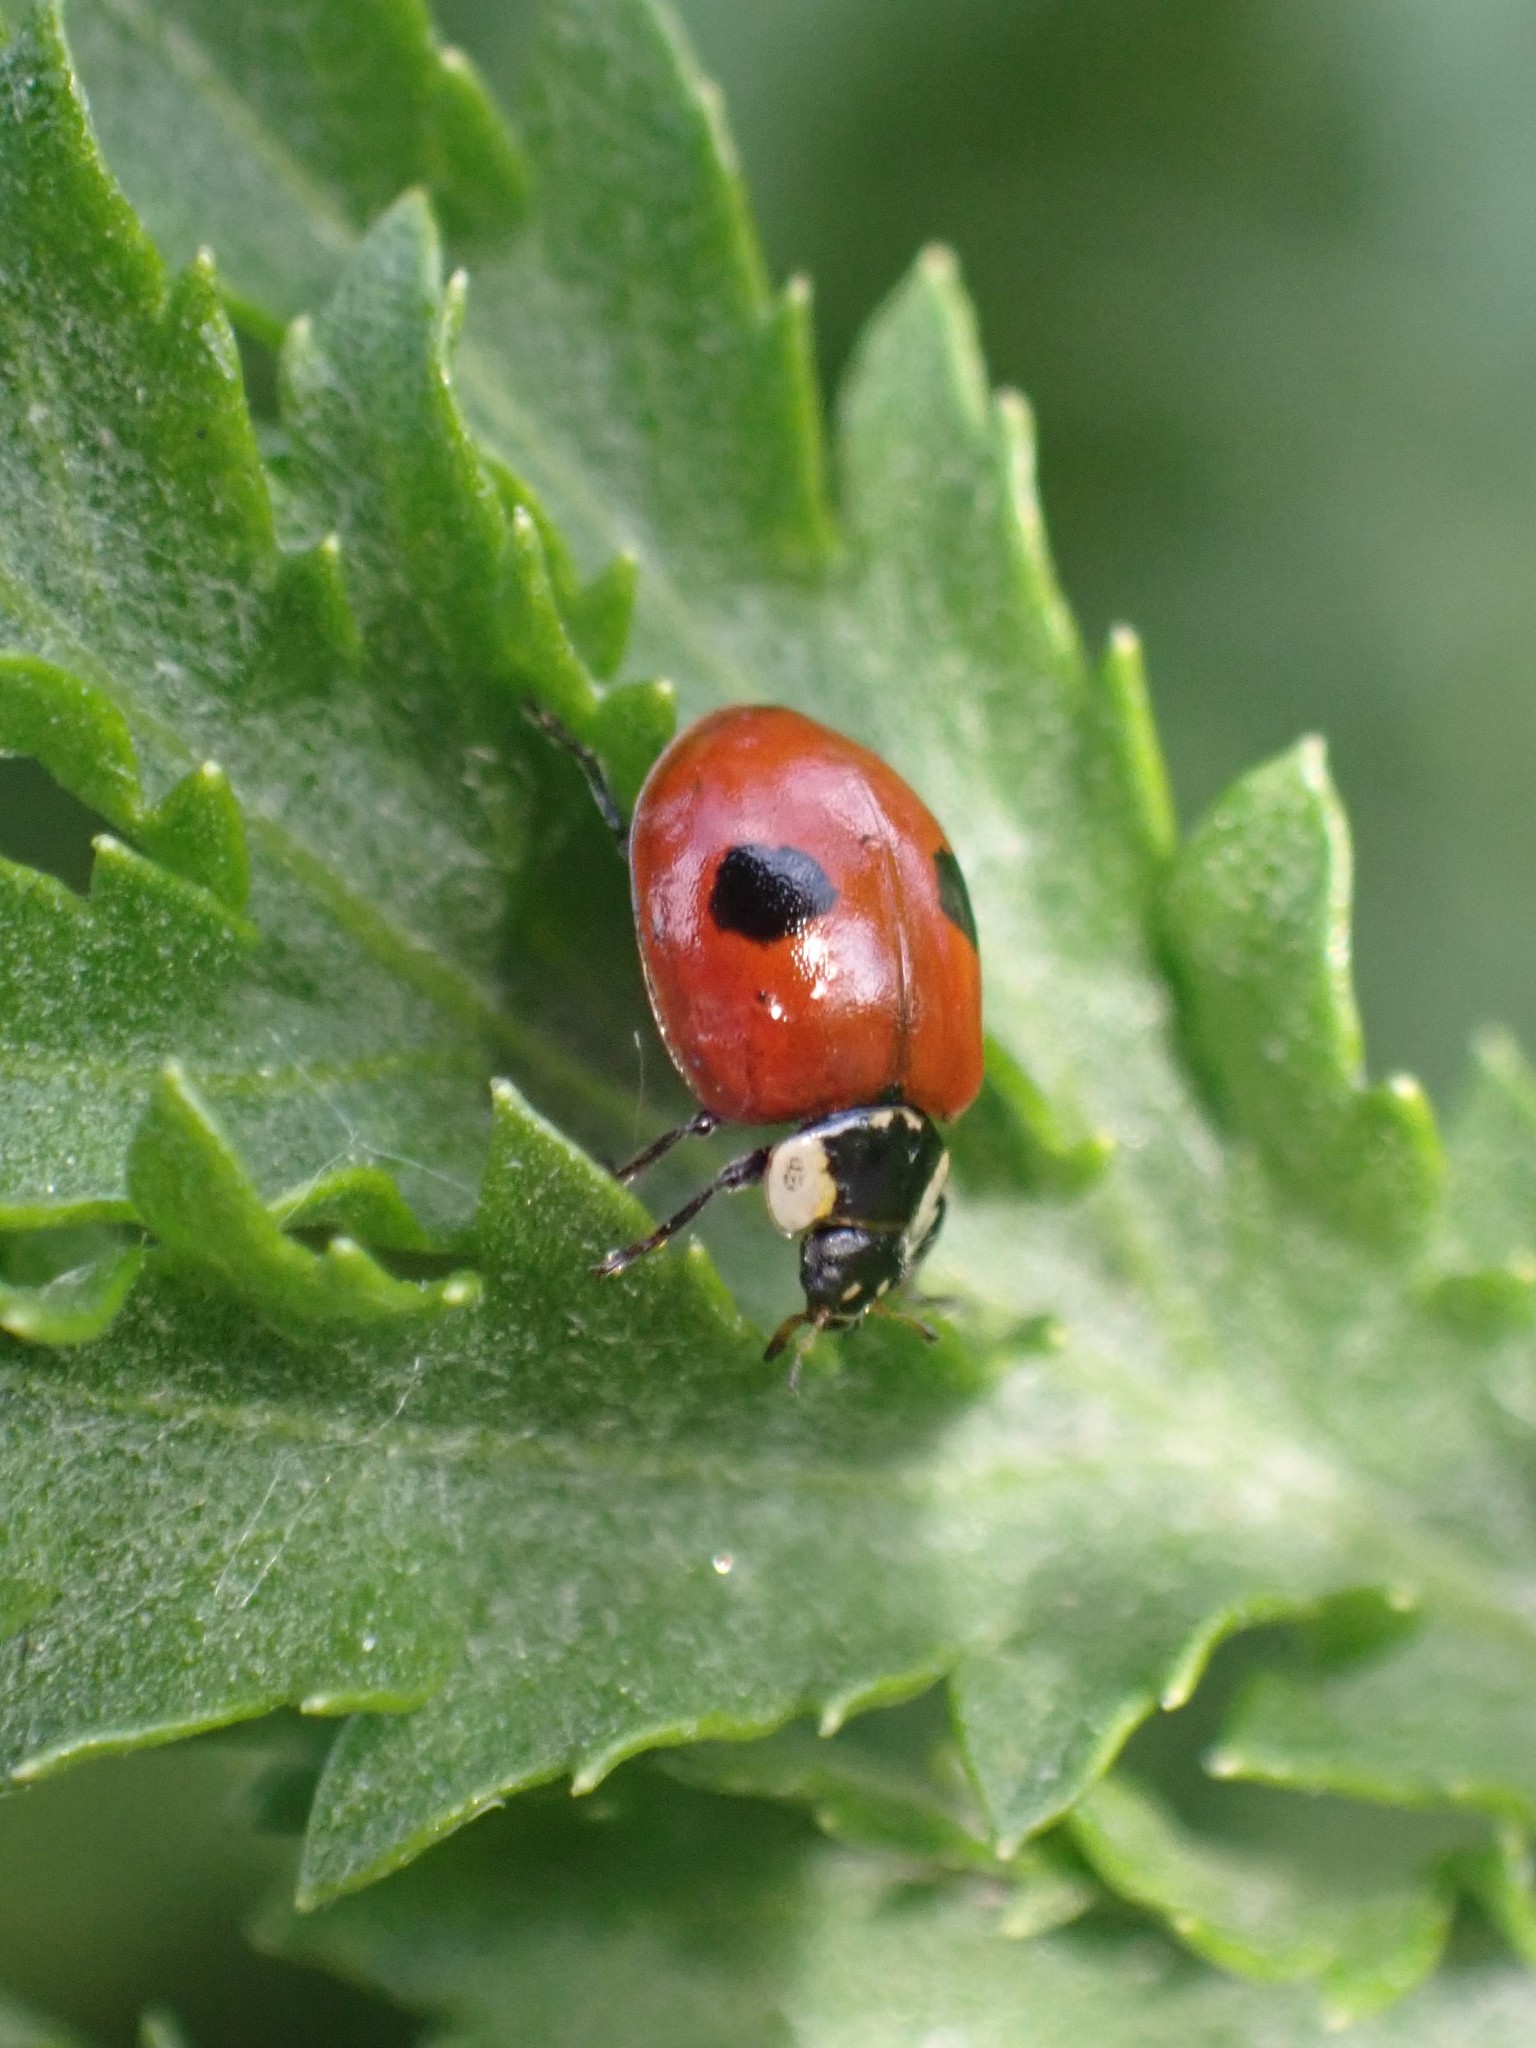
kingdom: Animalia
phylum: Arthropoda
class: Insecta
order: Coleoptera
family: Coccinellidae
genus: Adalia
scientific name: Adalia bipunctata
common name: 2-spot ladybird
